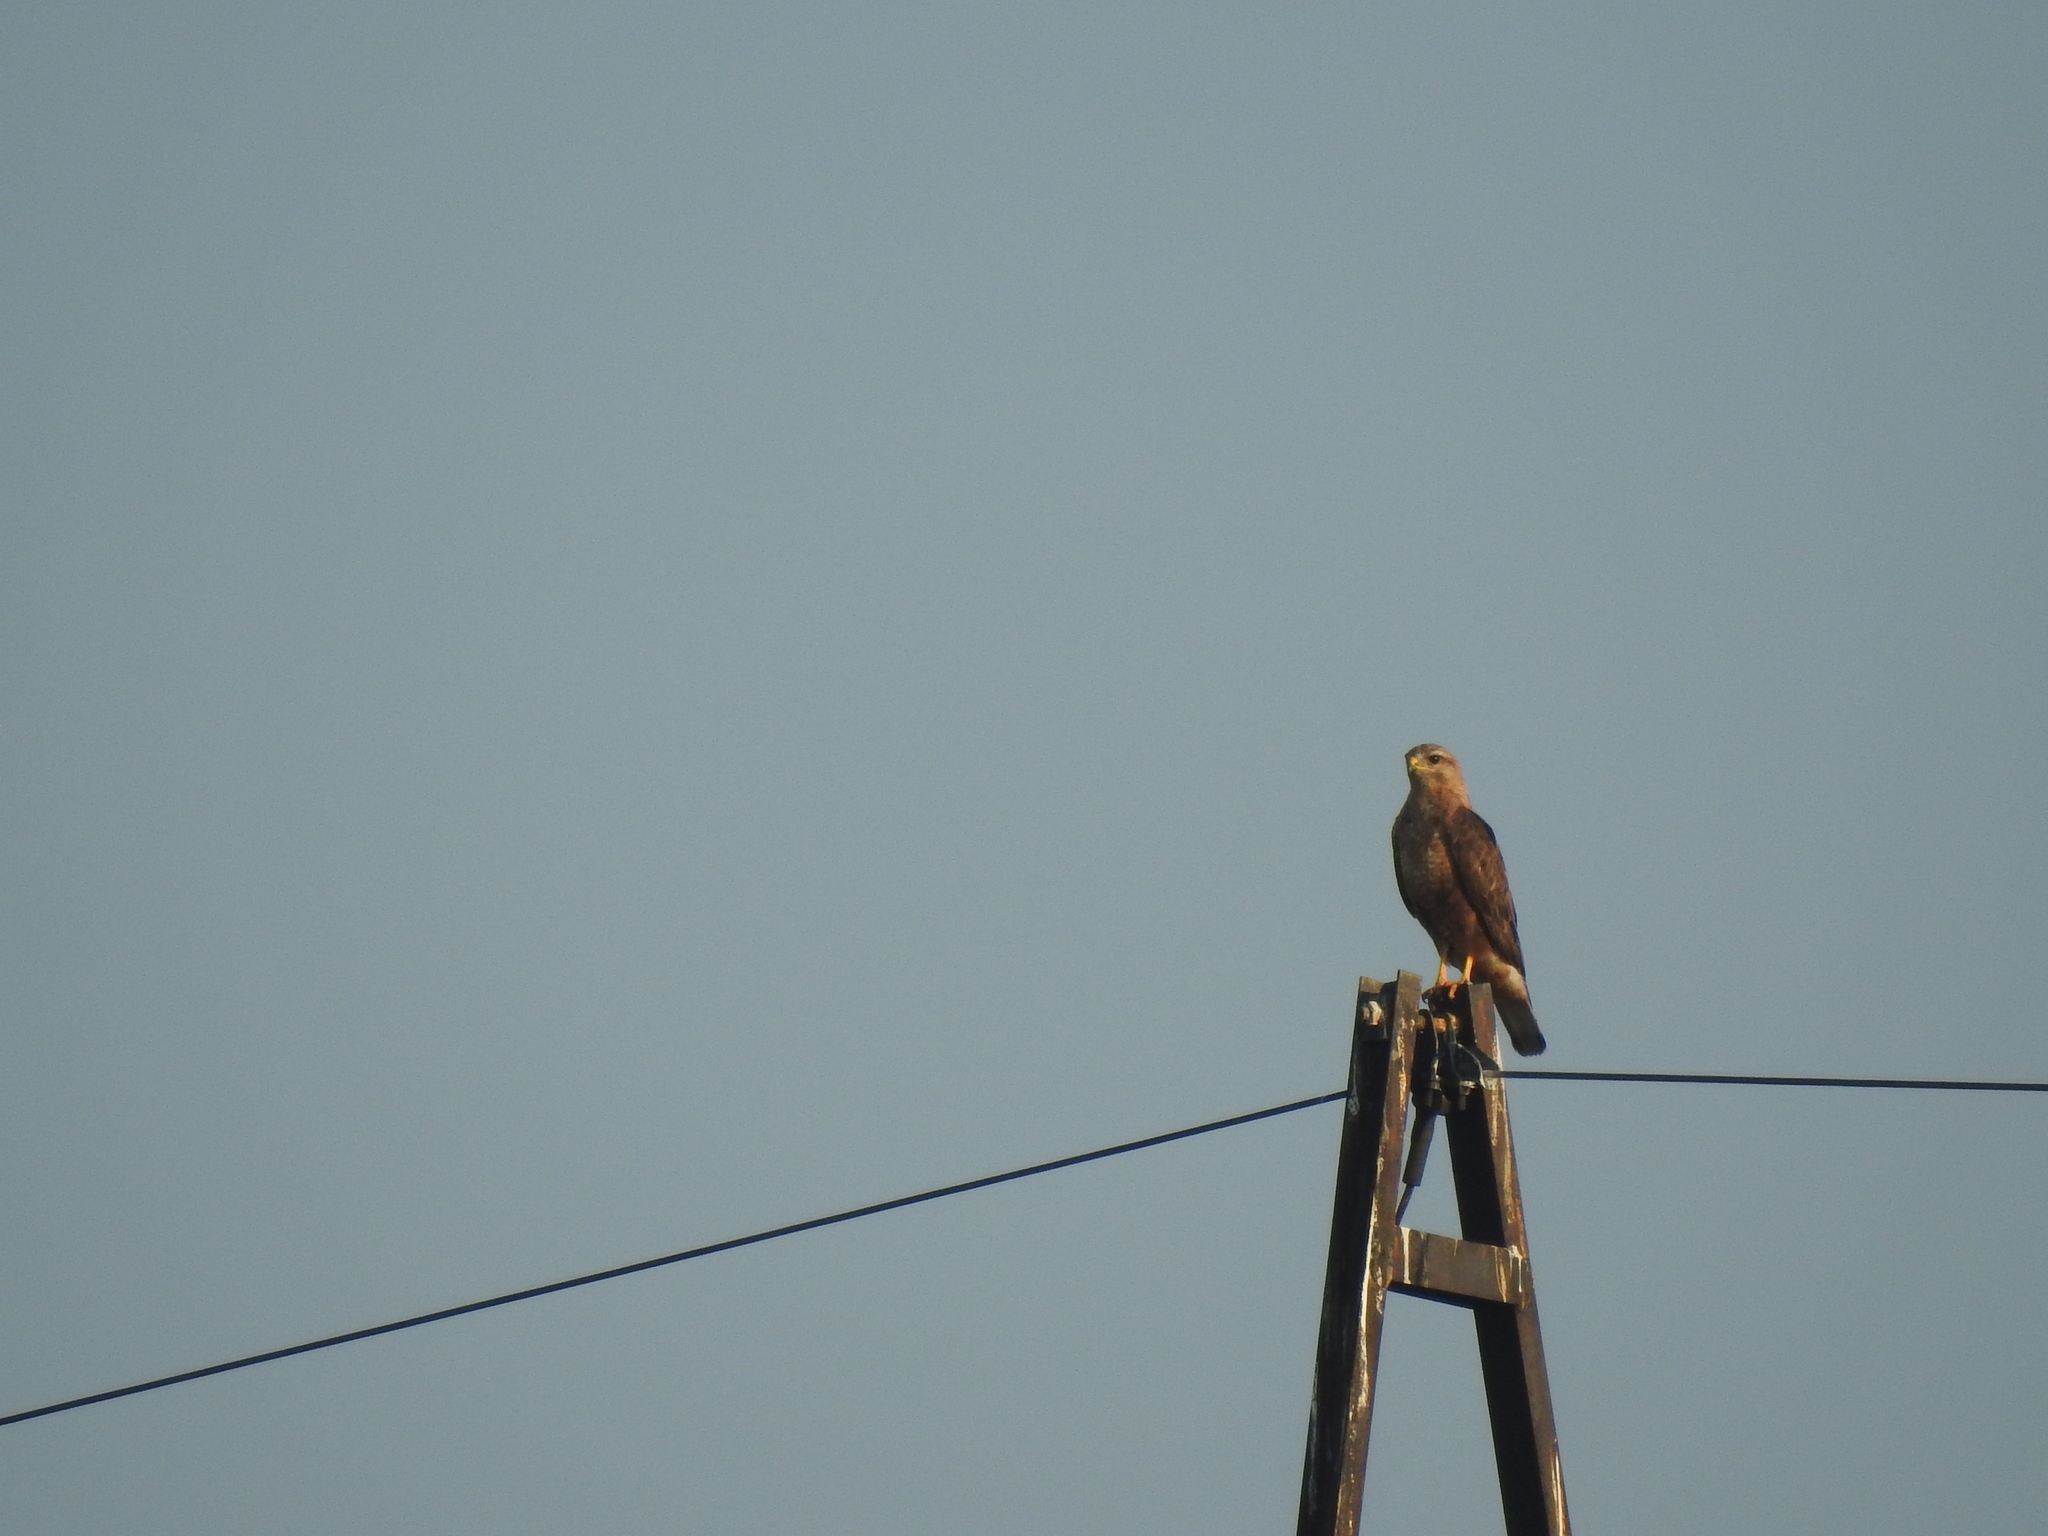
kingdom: Animalia
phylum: Chordata
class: Aves
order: Accipitriformes
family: Accipitridae
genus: Buteo
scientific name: Buteo buteo
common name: Common buzzard
